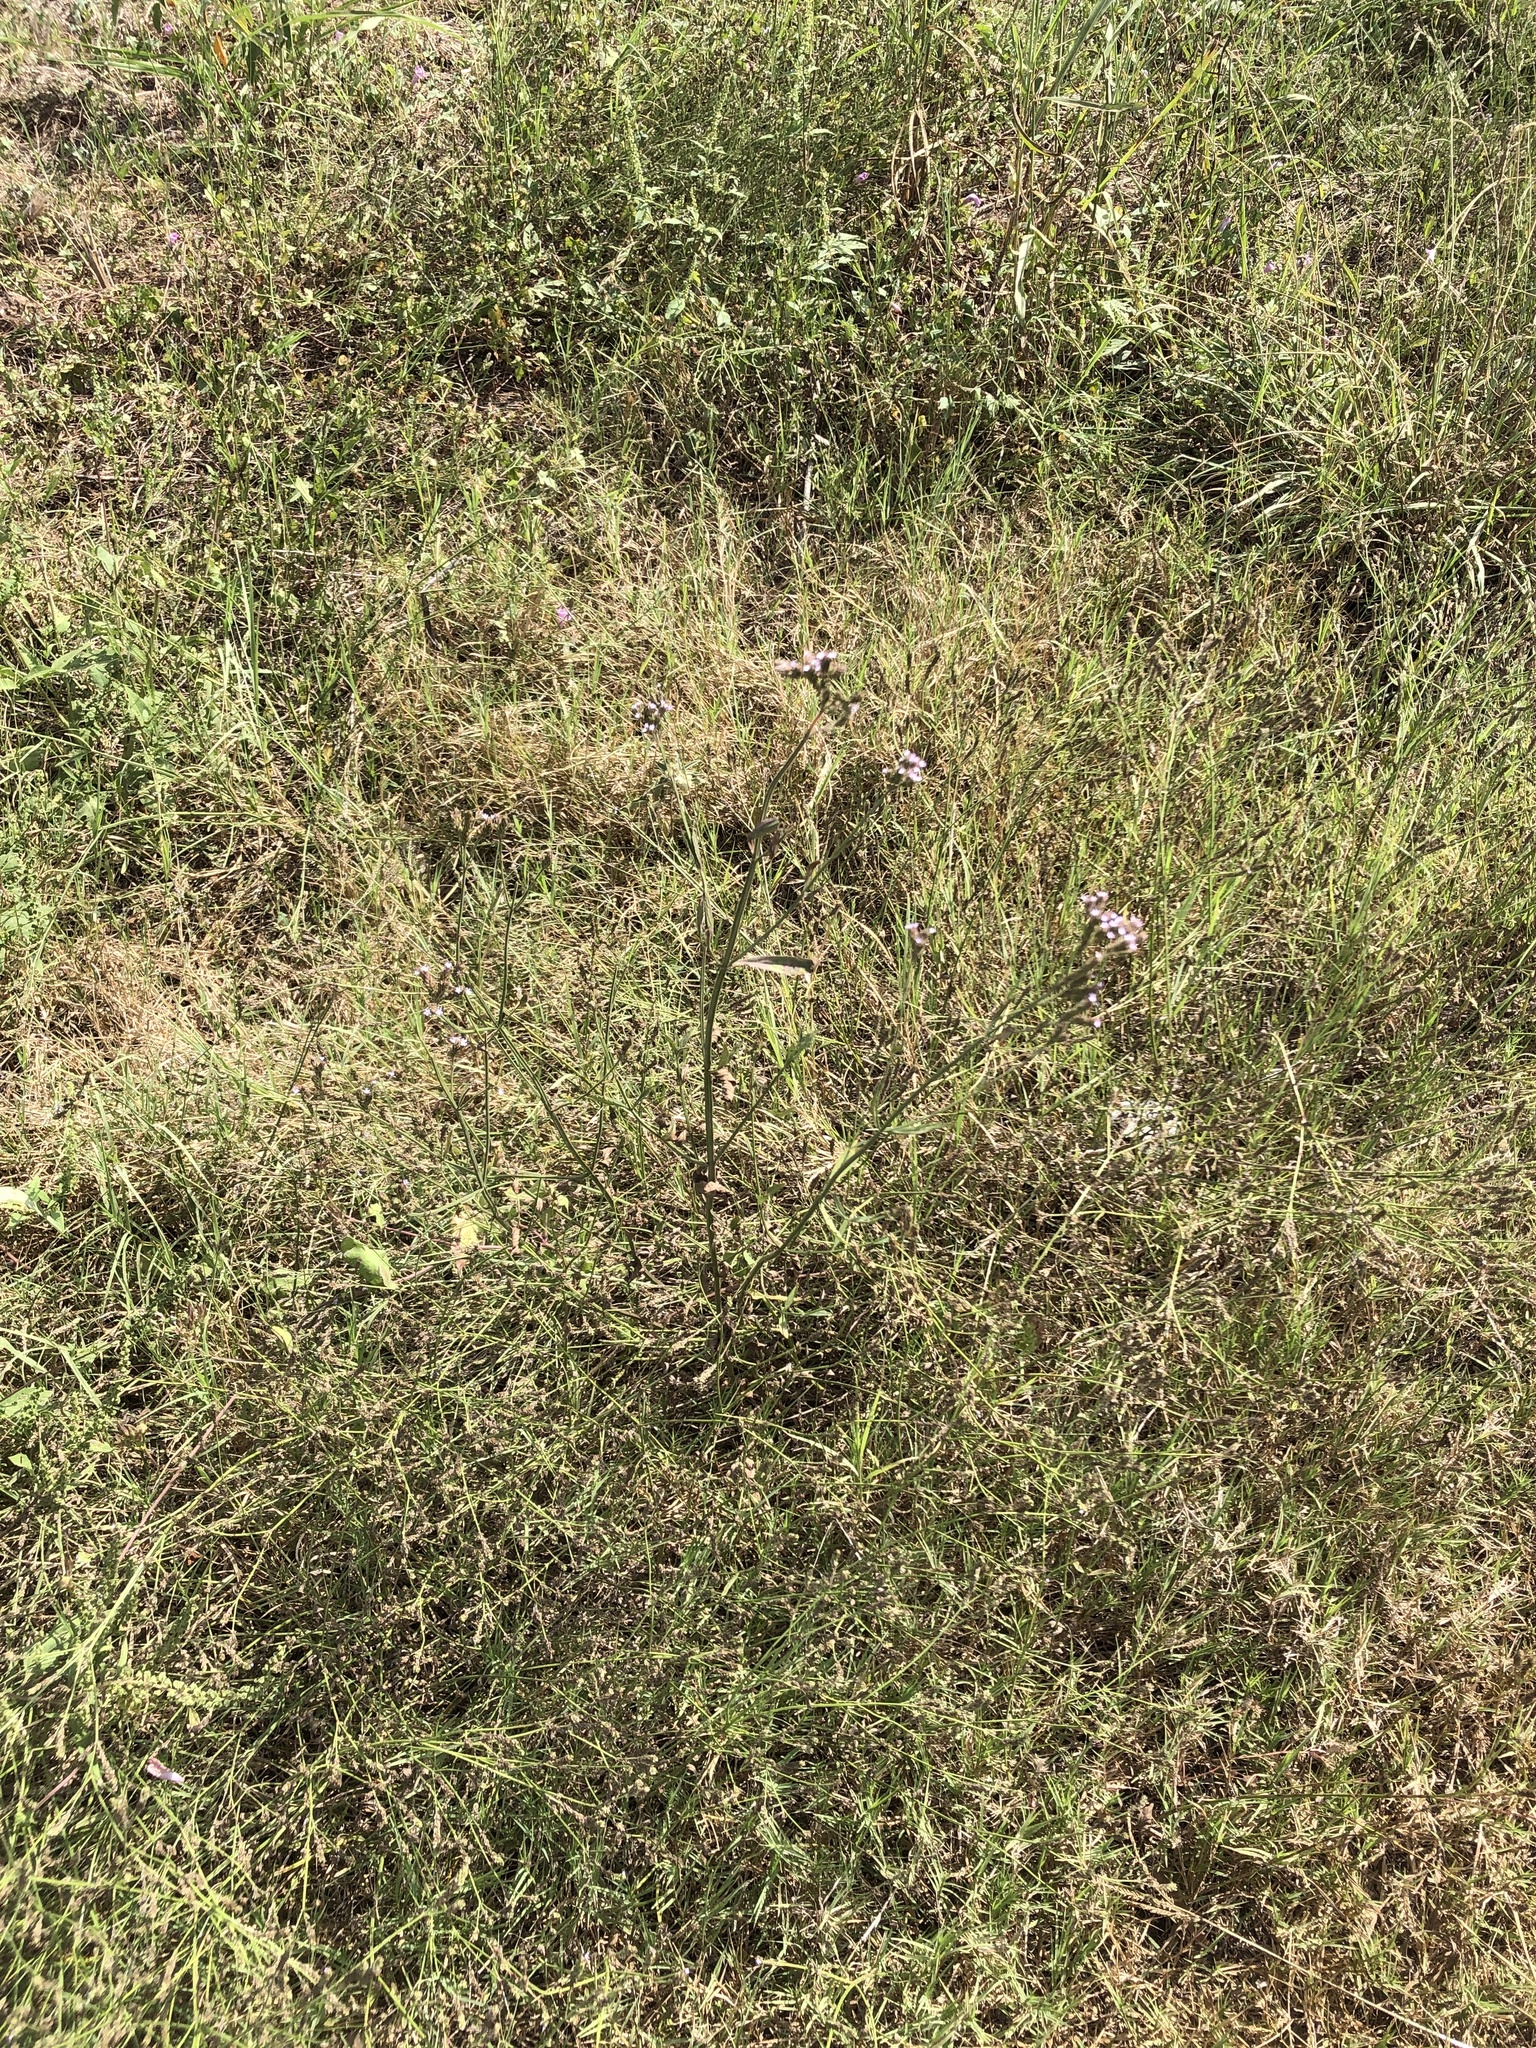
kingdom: Plantae
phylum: Tracheophyta
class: Magnoliopsida
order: Lamiales
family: Verbenaceae
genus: Verbena
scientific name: Verbena brasiliensis
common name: Brazilian vervain
